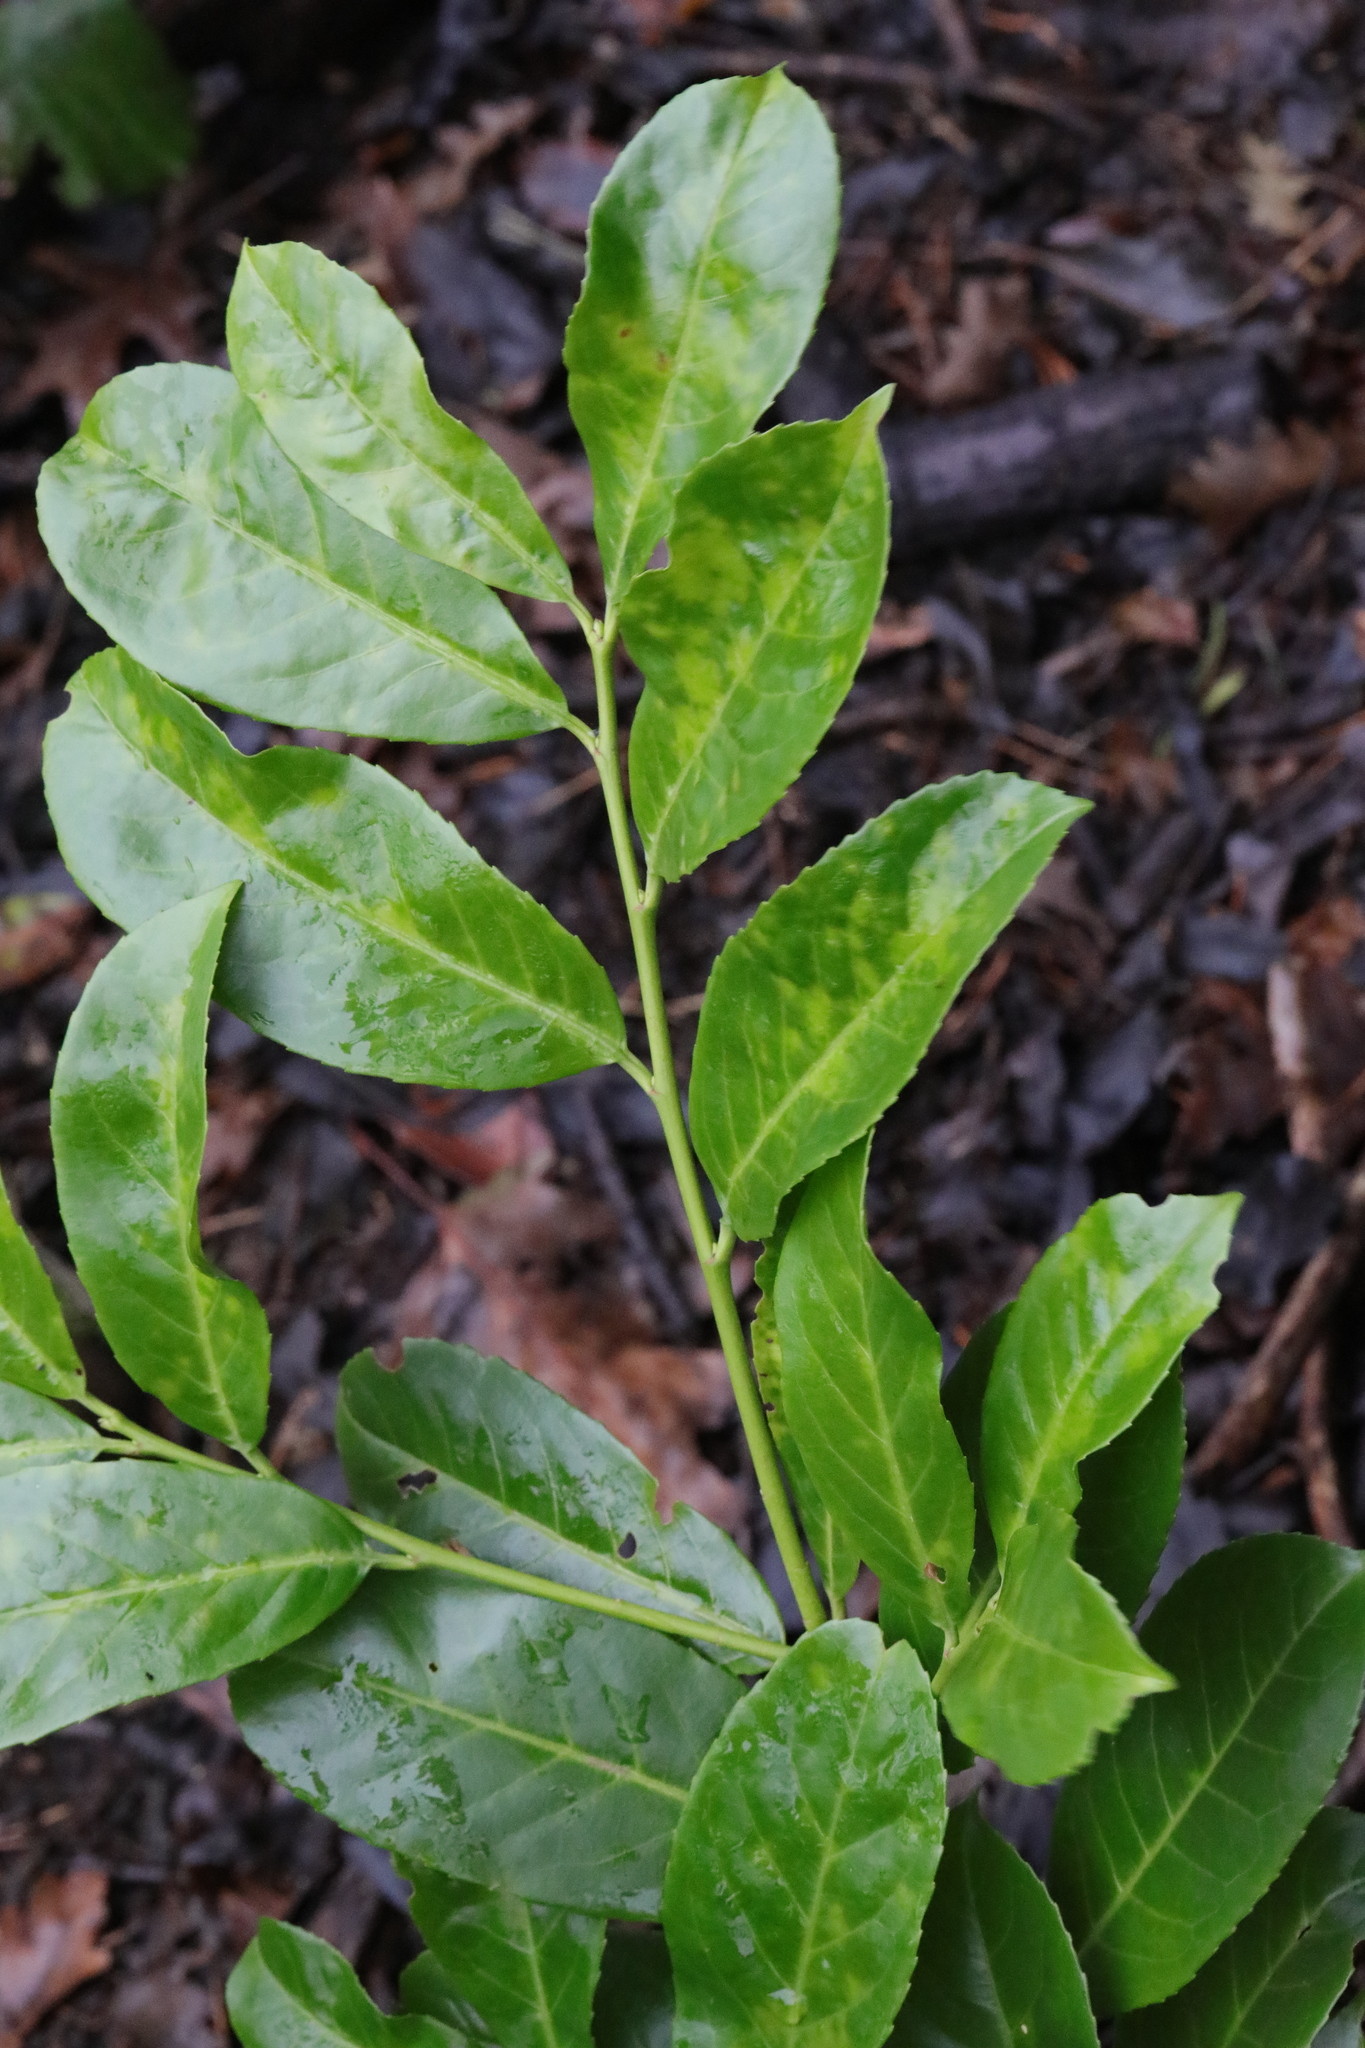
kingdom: Plantae
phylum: Tracheophyta
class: Magnoliopsida
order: Rosales
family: Rosaceae
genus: Prunus
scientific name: Prunus laurocerasus
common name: Cherry laurel
